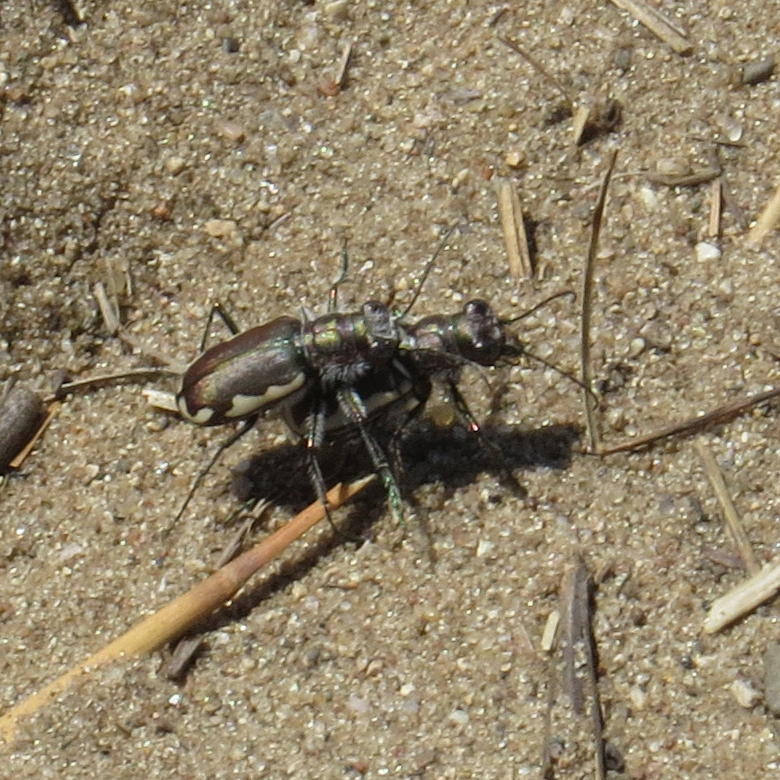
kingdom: Animalia
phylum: Arthropoda
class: Insecta
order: Coleoptera
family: Carabidae
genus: Cicindela
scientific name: Cicindela scutellaris
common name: Festive tiger beetle
